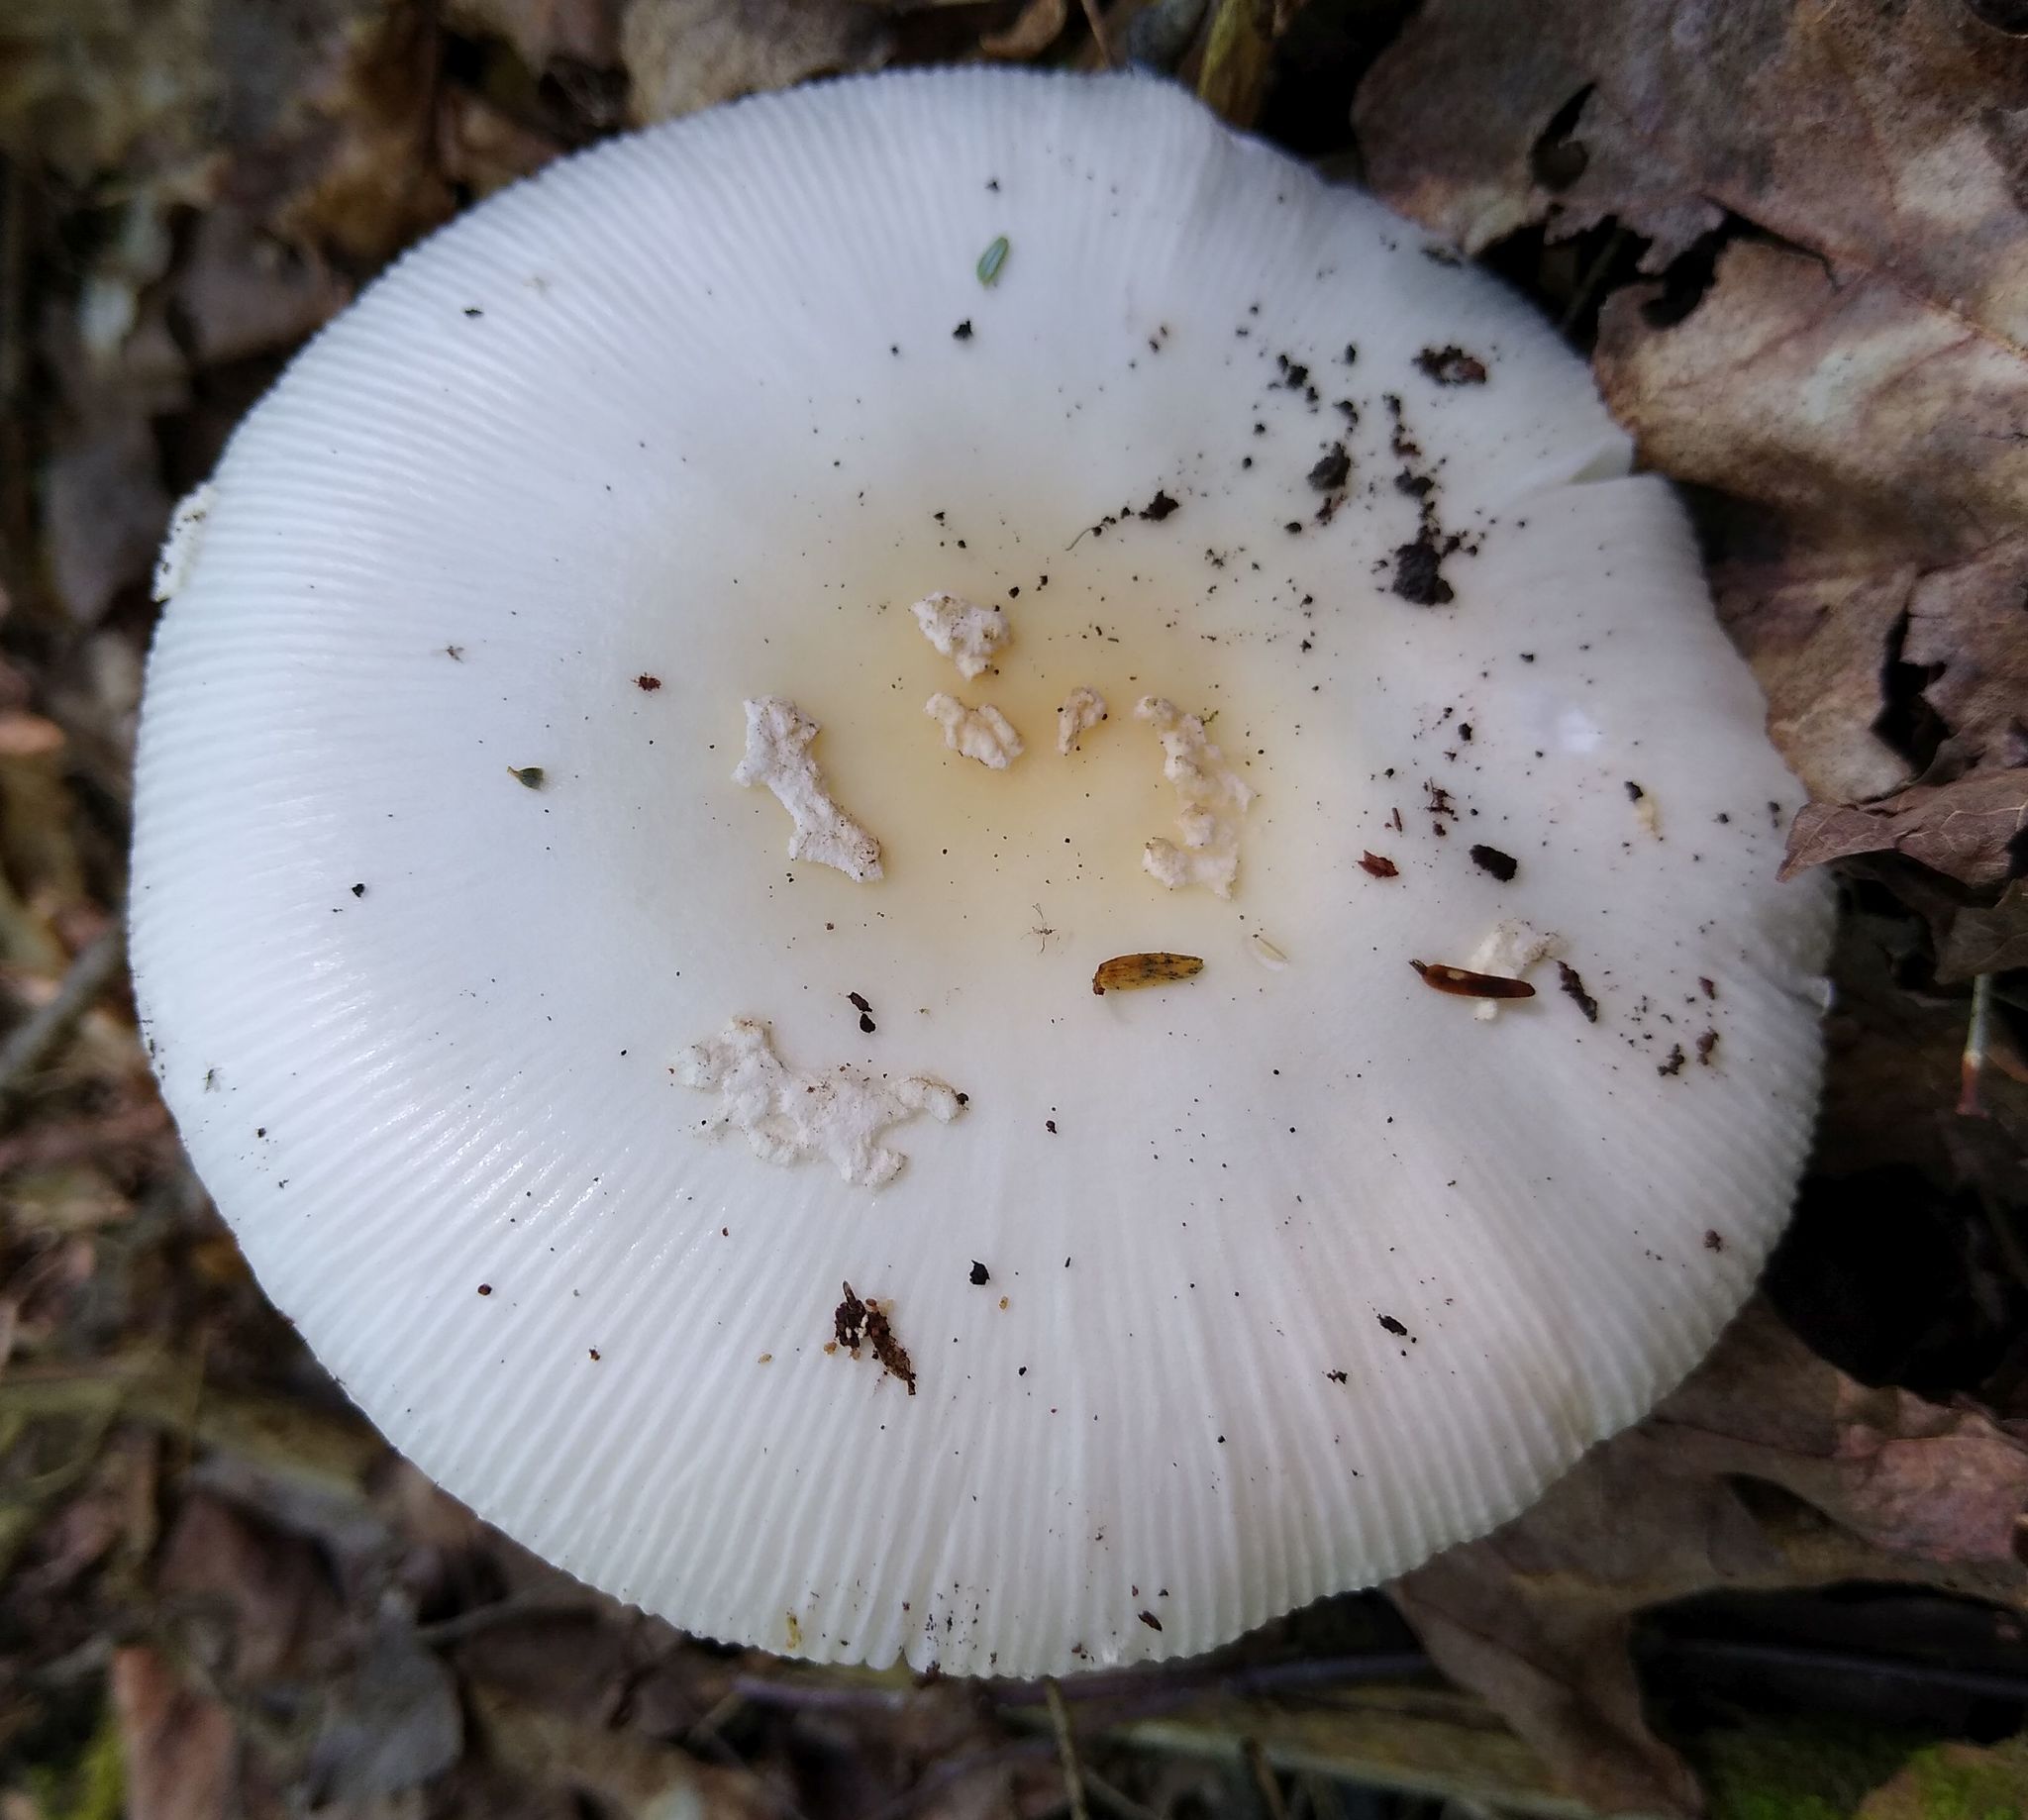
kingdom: Fungi
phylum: Basidiomycota
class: Agaricomycetes
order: Agaricales
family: Amanitaceae
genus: Amanita
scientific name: Amanita albocreata
